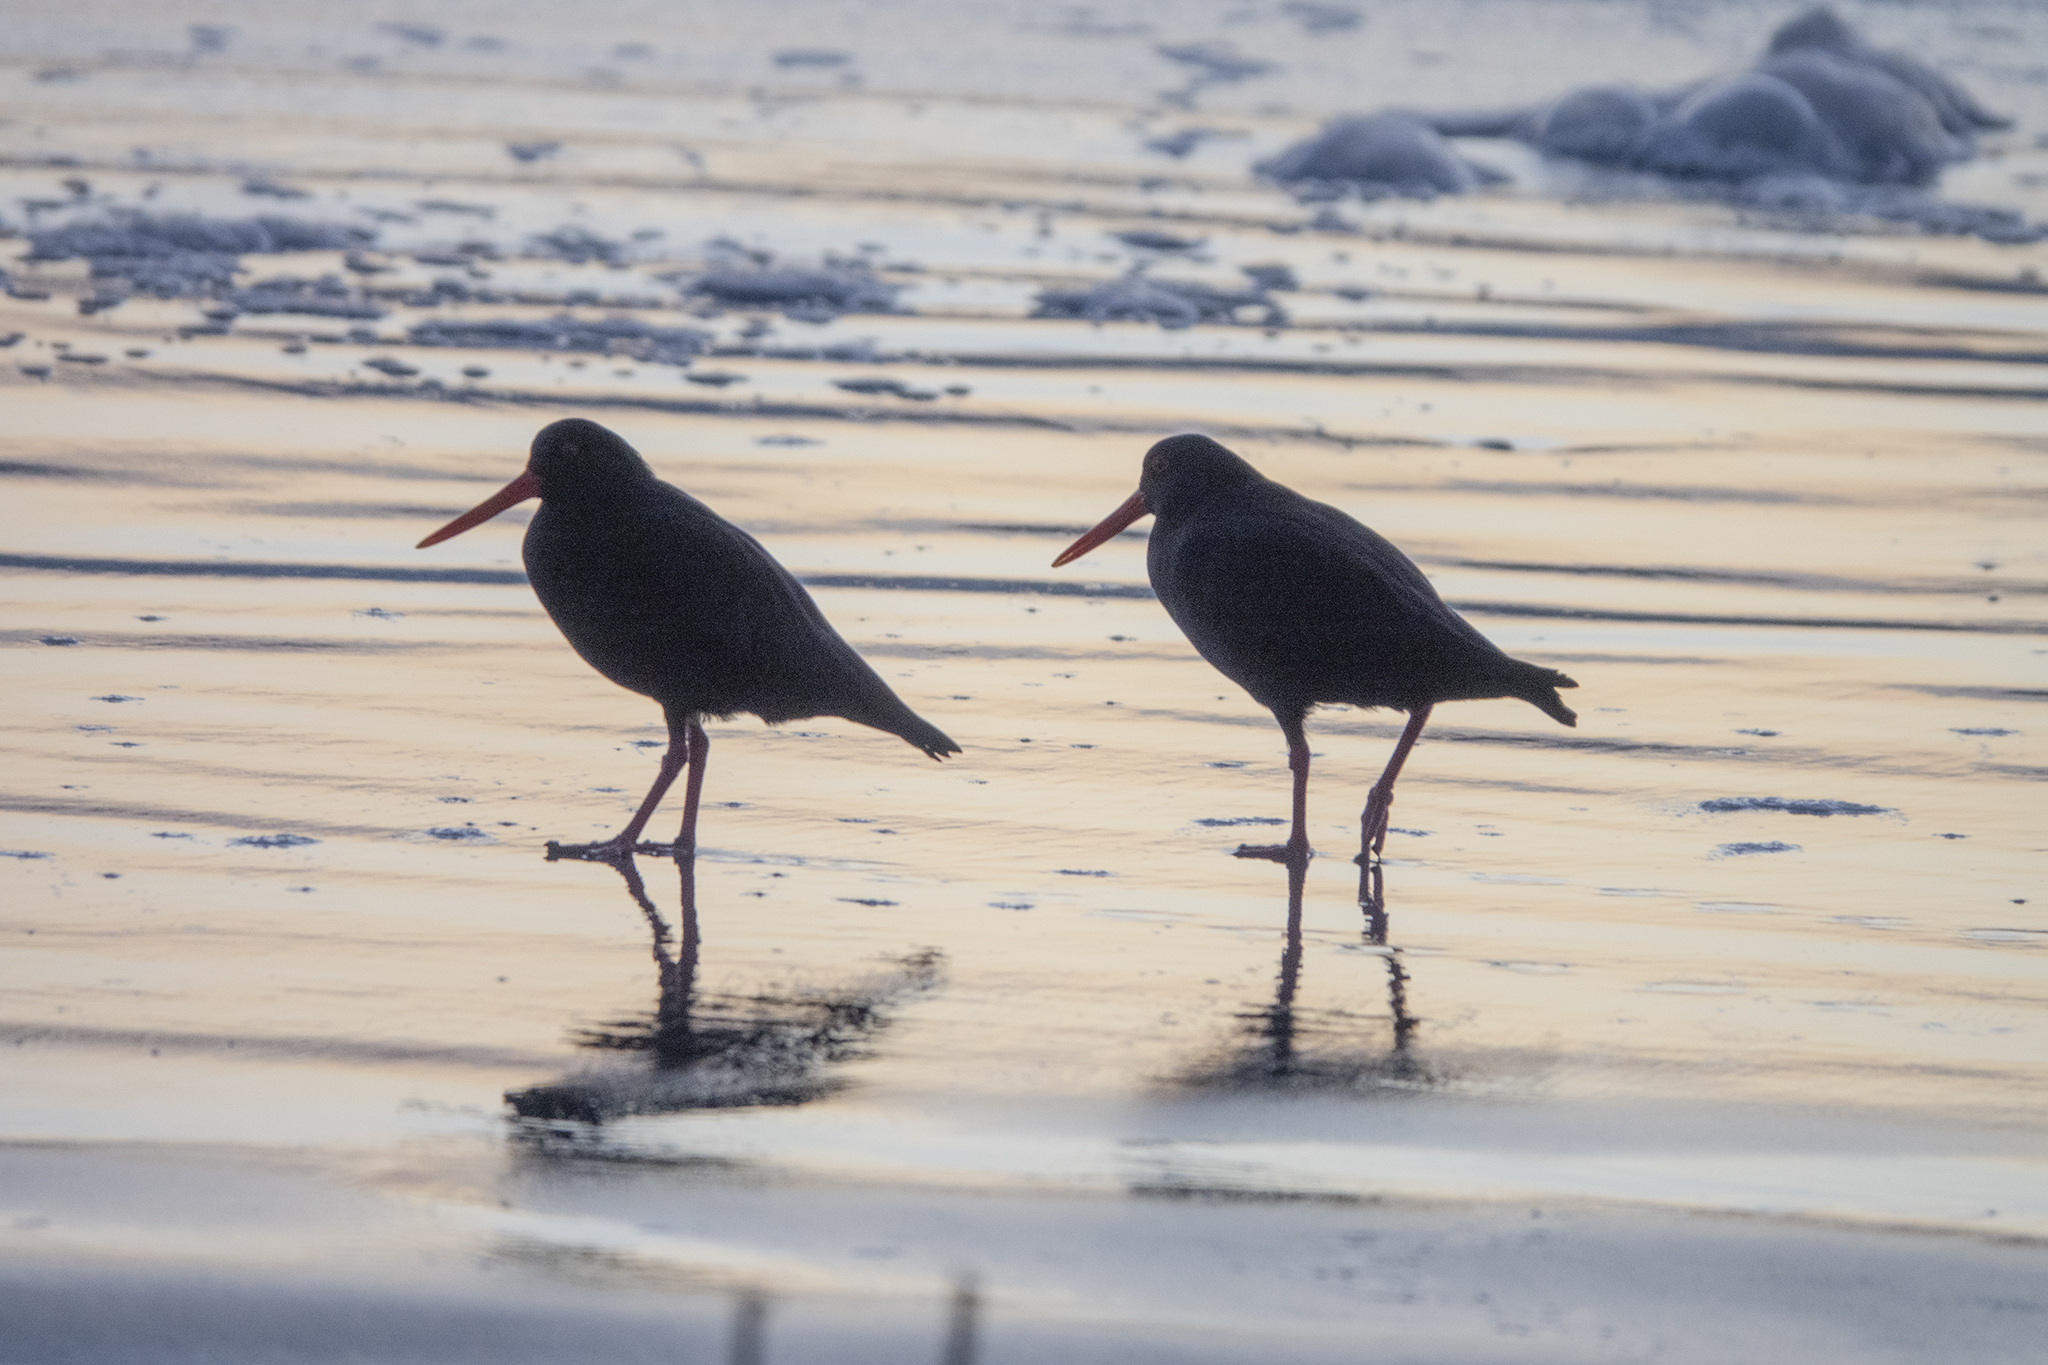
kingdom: Animalia
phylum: Chordata
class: Aves
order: Charadriiformes
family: Haematopodidae
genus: Haematopus
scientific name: Haematopus unicolor
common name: Variable oystercatcher
